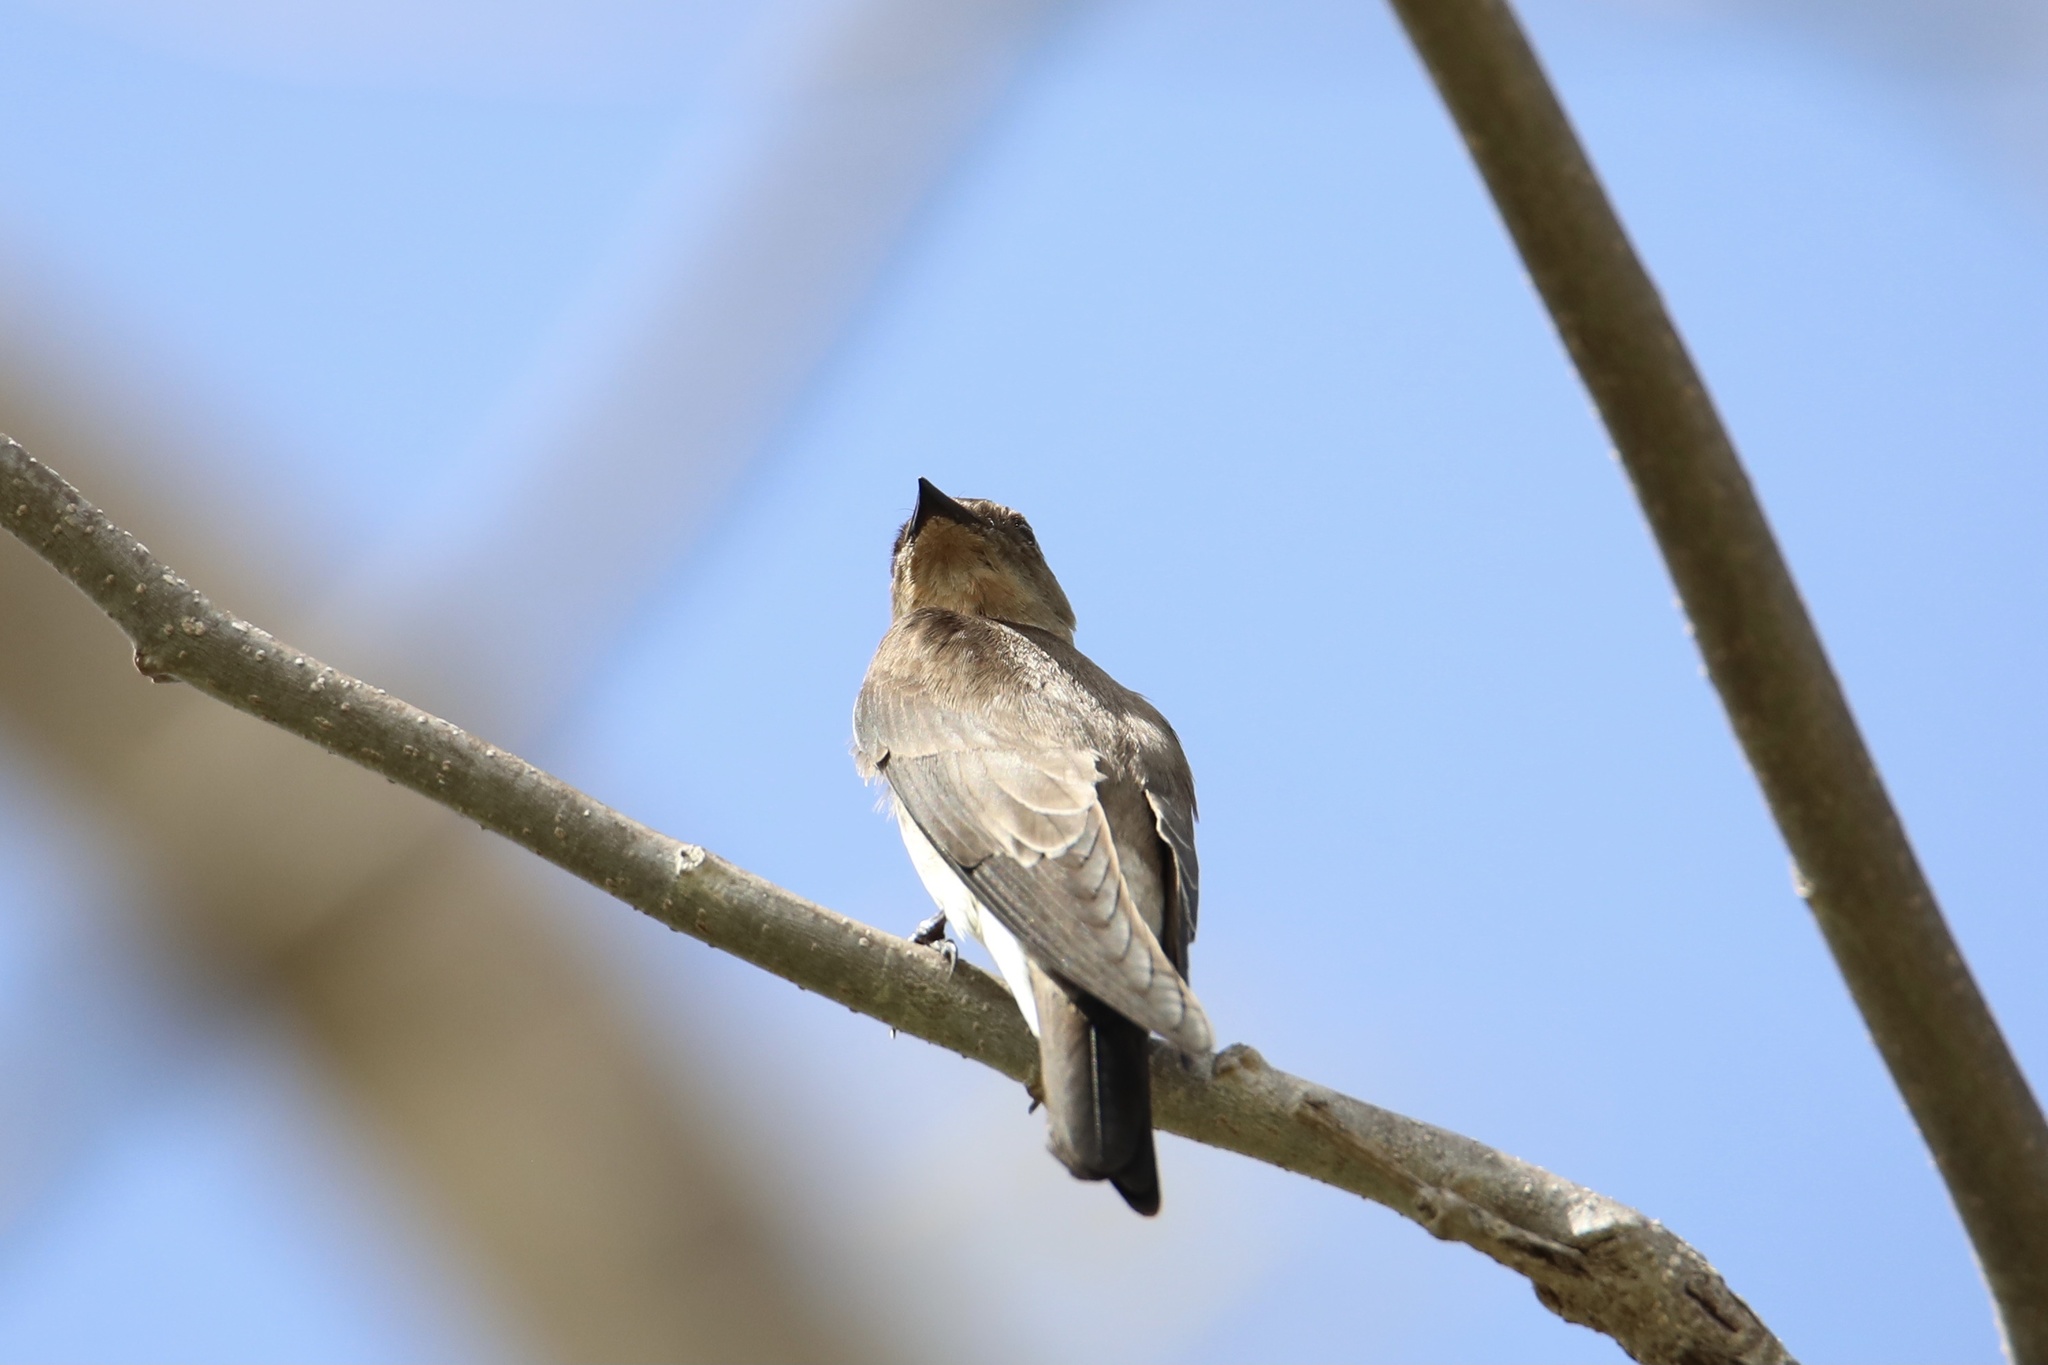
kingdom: Animalia
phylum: Chordata
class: Aves
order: Passeriformes
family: Hirundinidae
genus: Stelgidopteryx
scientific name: Stelgidopteryx ruficollis
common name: Southern rough-winged swallow
